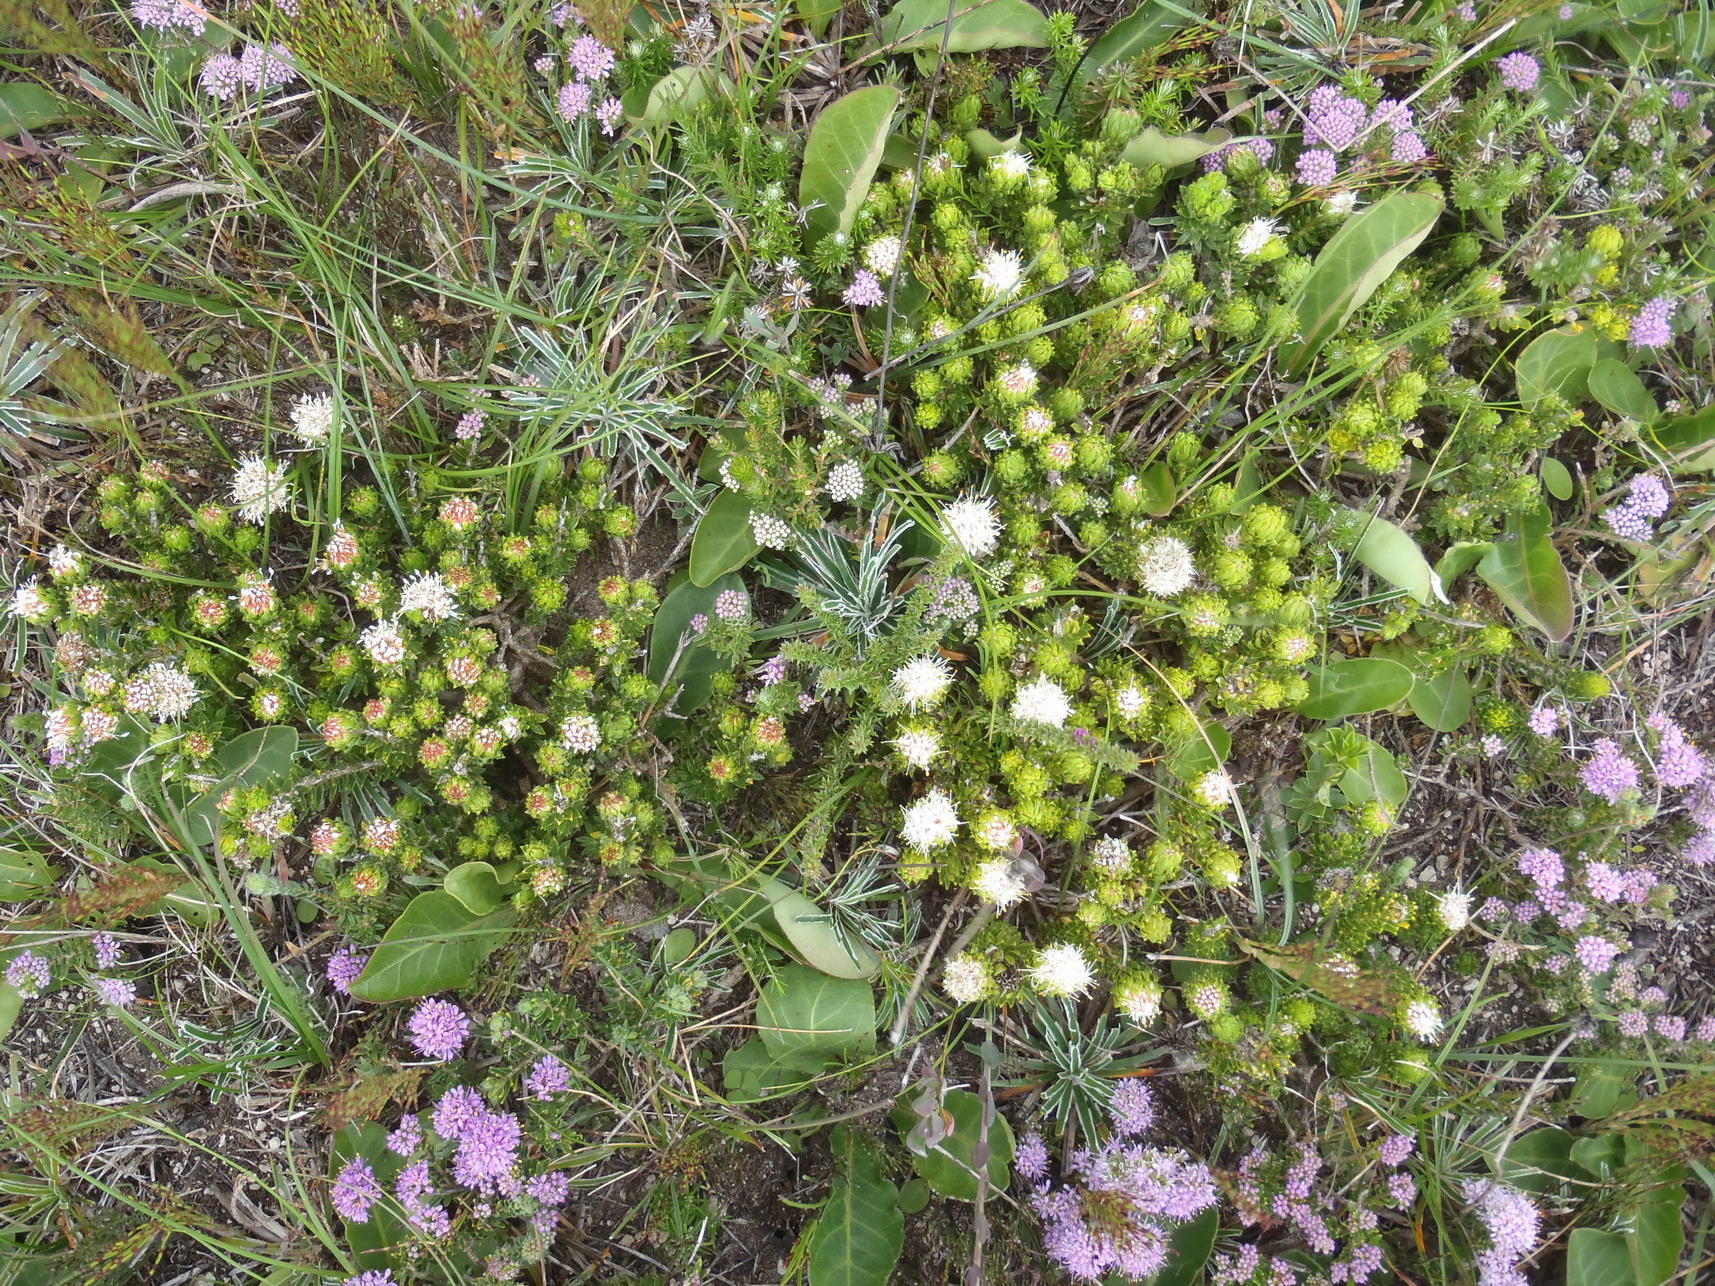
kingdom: Plantae
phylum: Tracheophyta
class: Magnoliopsida
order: Sapindales
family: Rutaceae
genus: Agathosma
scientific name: Agathosma eriantha
